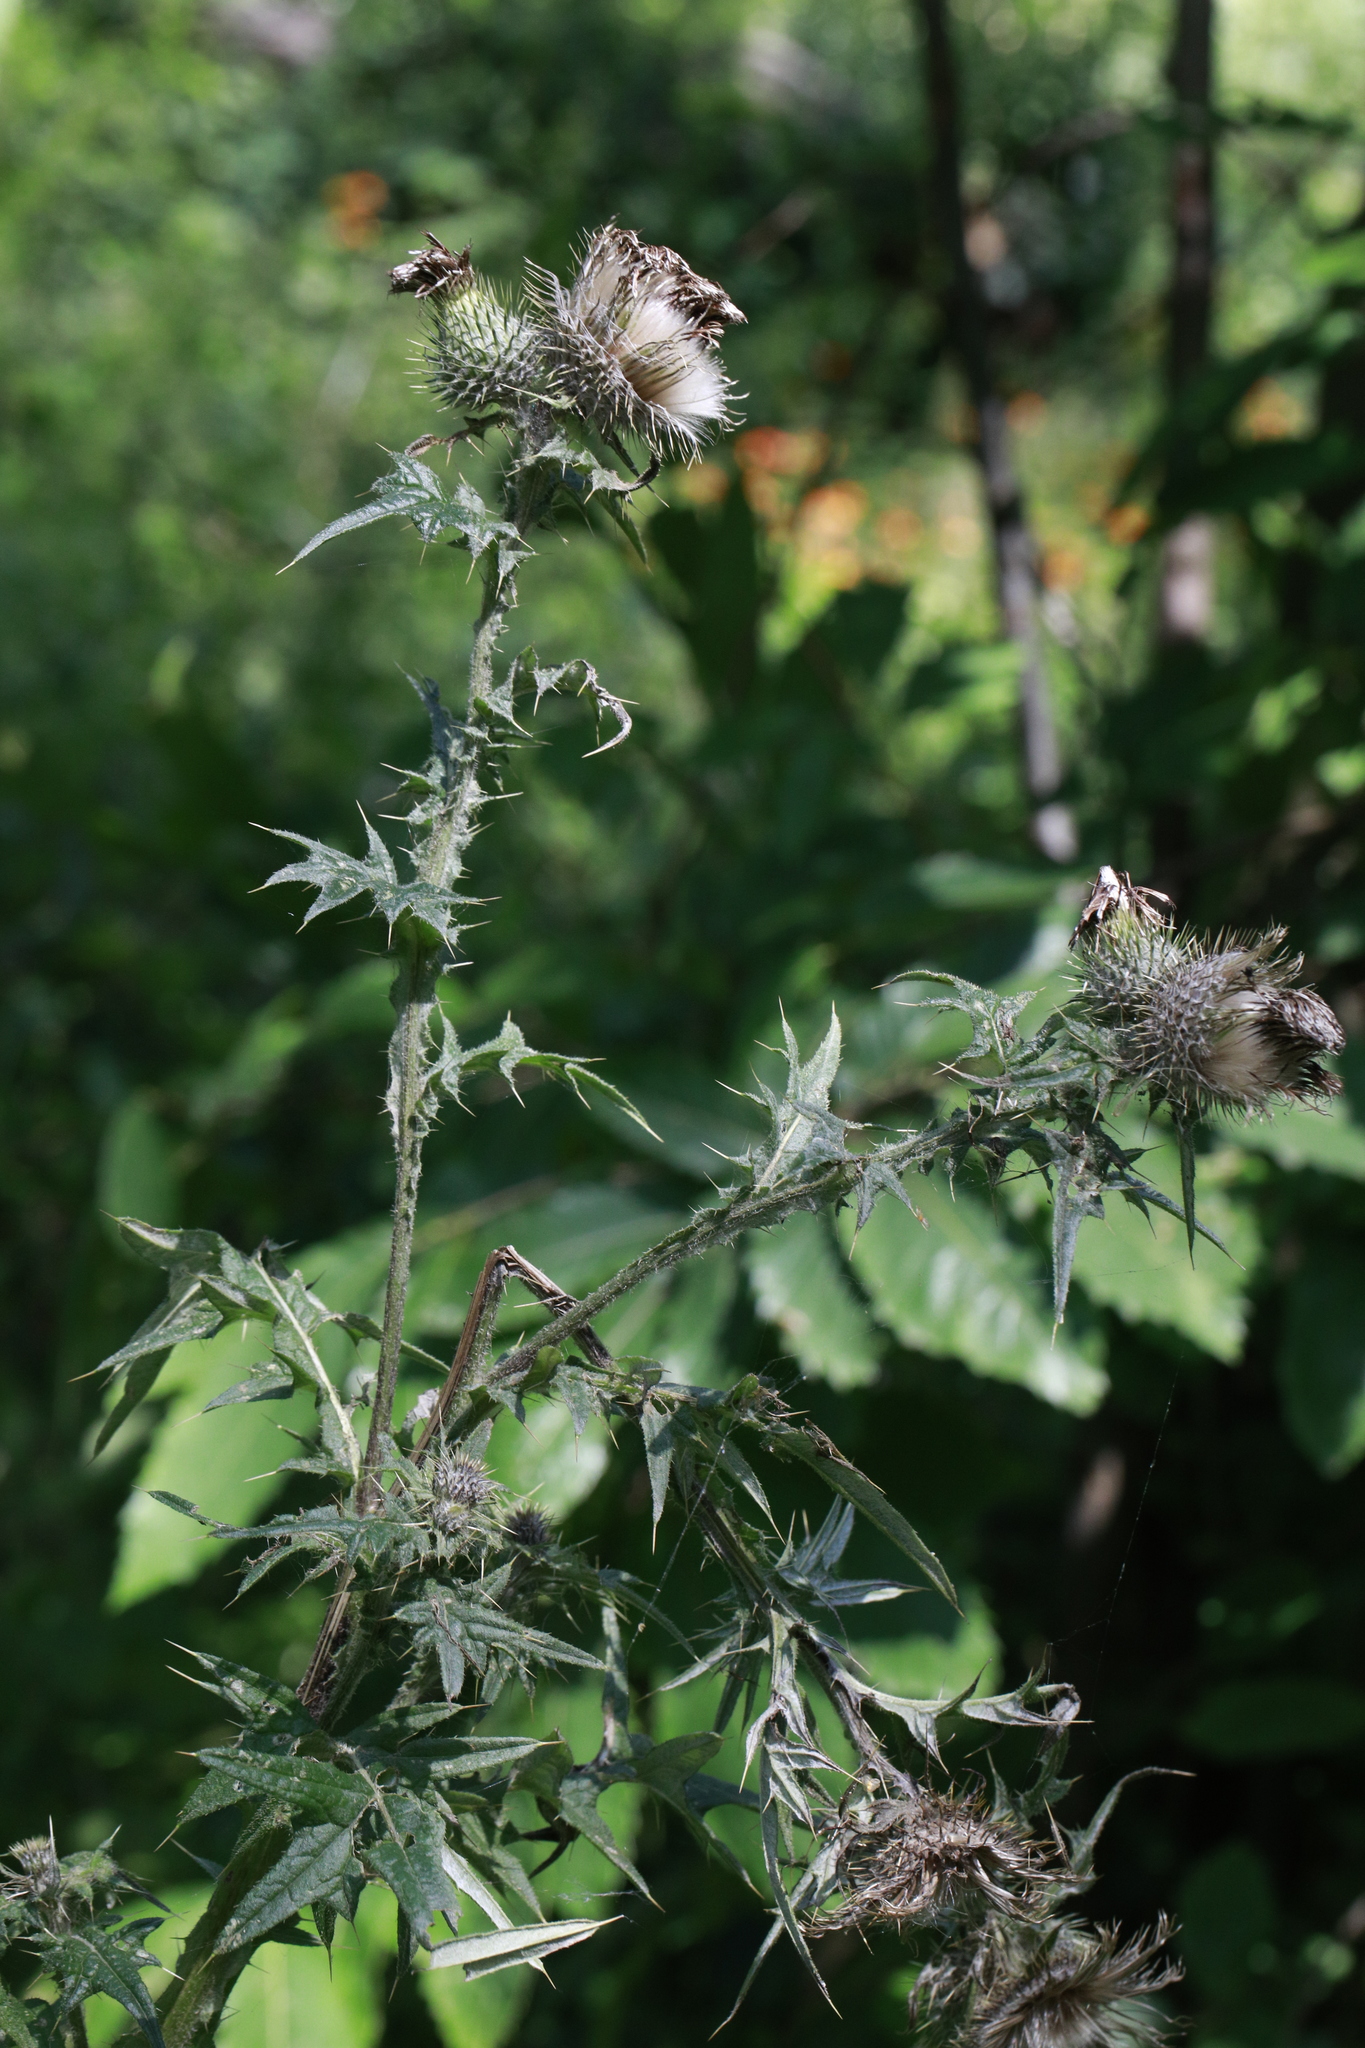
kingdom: Plantae
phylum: Tracheophyta
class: Magnoliopsida
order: Asterales
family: Asteraceae
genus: Cirsium
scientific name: Cirsium vulgare
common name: Bull thistle
